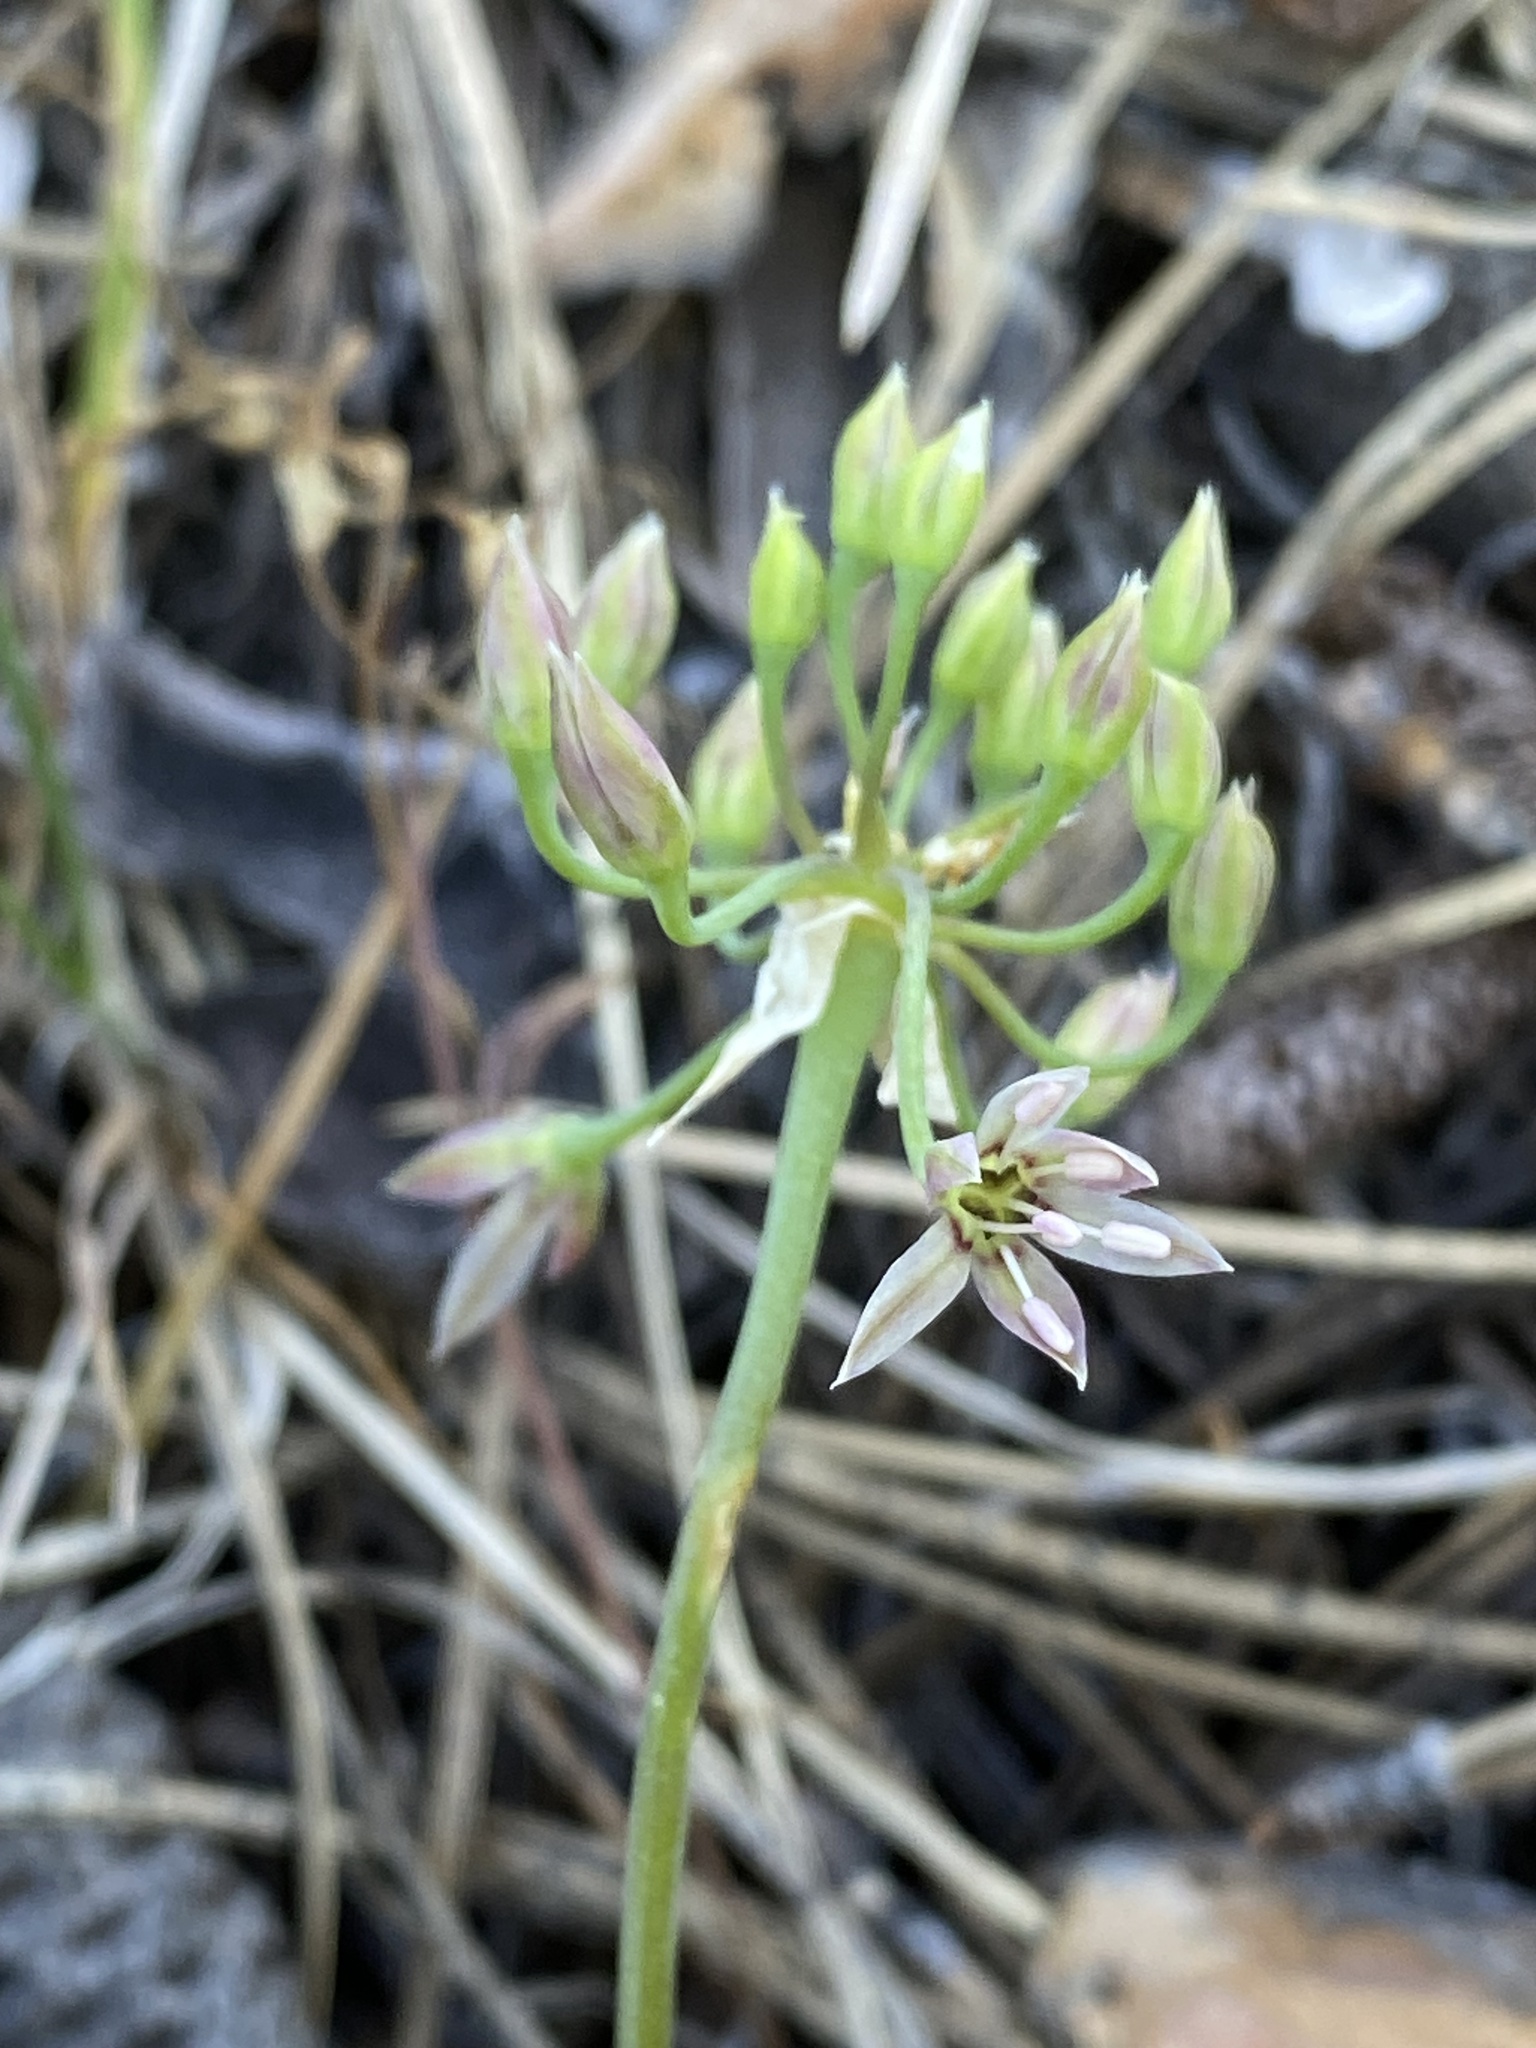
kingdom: Plantae
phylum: Tracheophyta
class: Liliopsida
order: Asparagales
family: Amaryllidaceae
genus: Allium
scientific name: Allium bisceptrum
